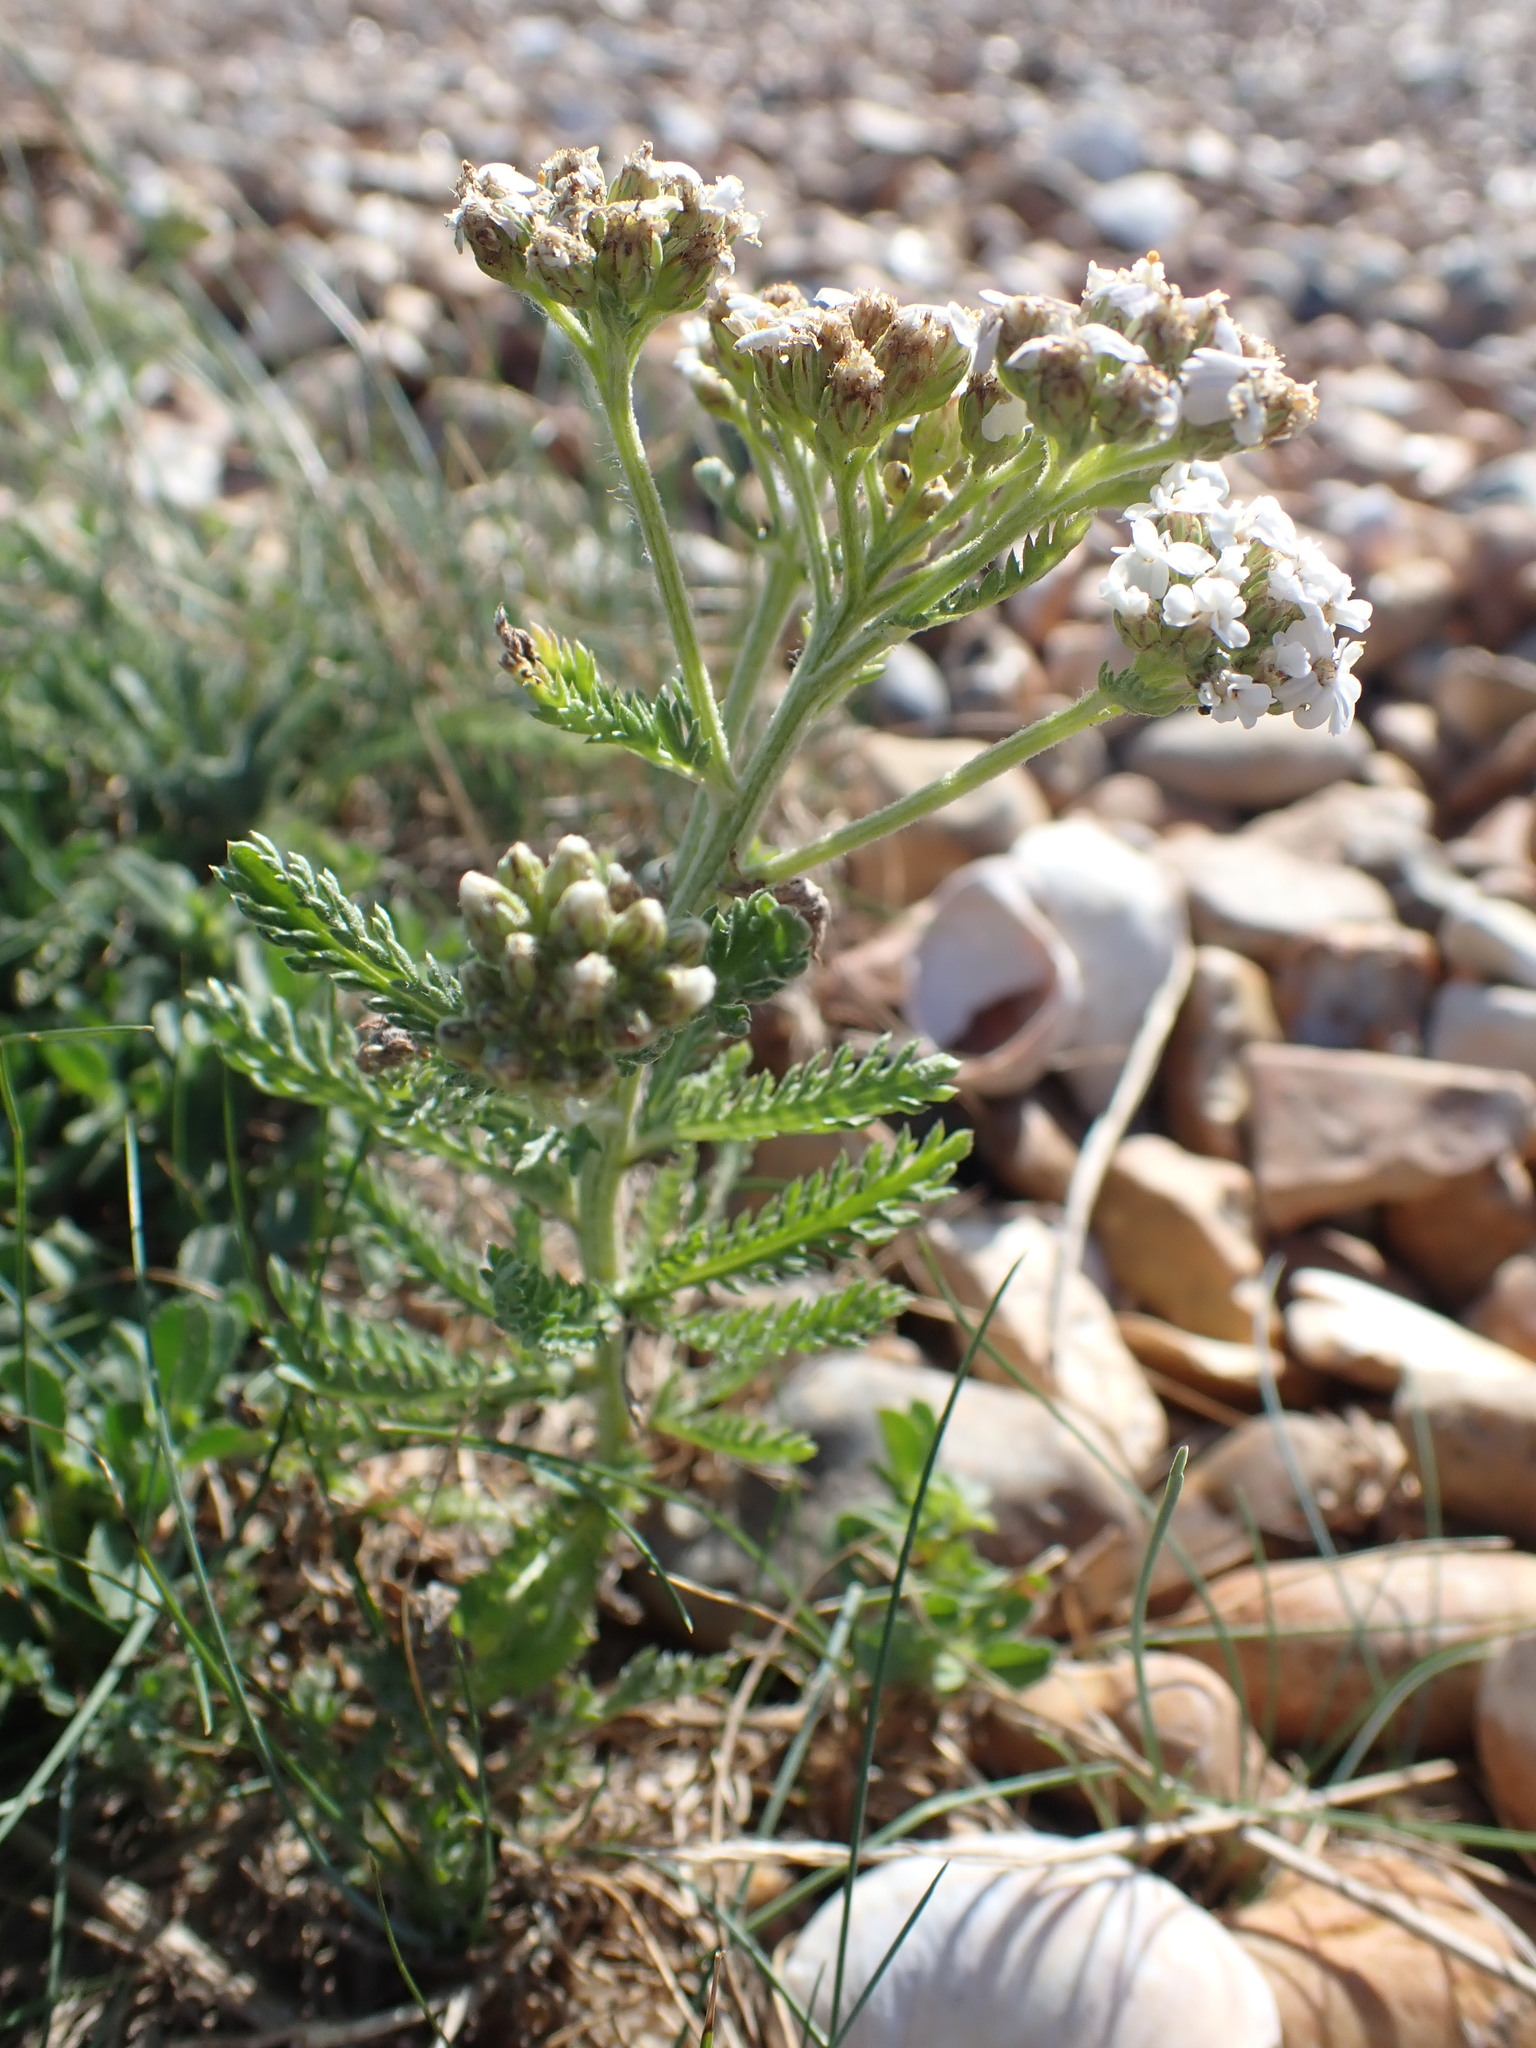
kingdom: Plantae
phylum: Tracheophyta
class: Magnoliopsida
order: Asterales
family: Asteraceae
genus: Achillea
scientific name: Achillea millefolium
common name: Yarrow
